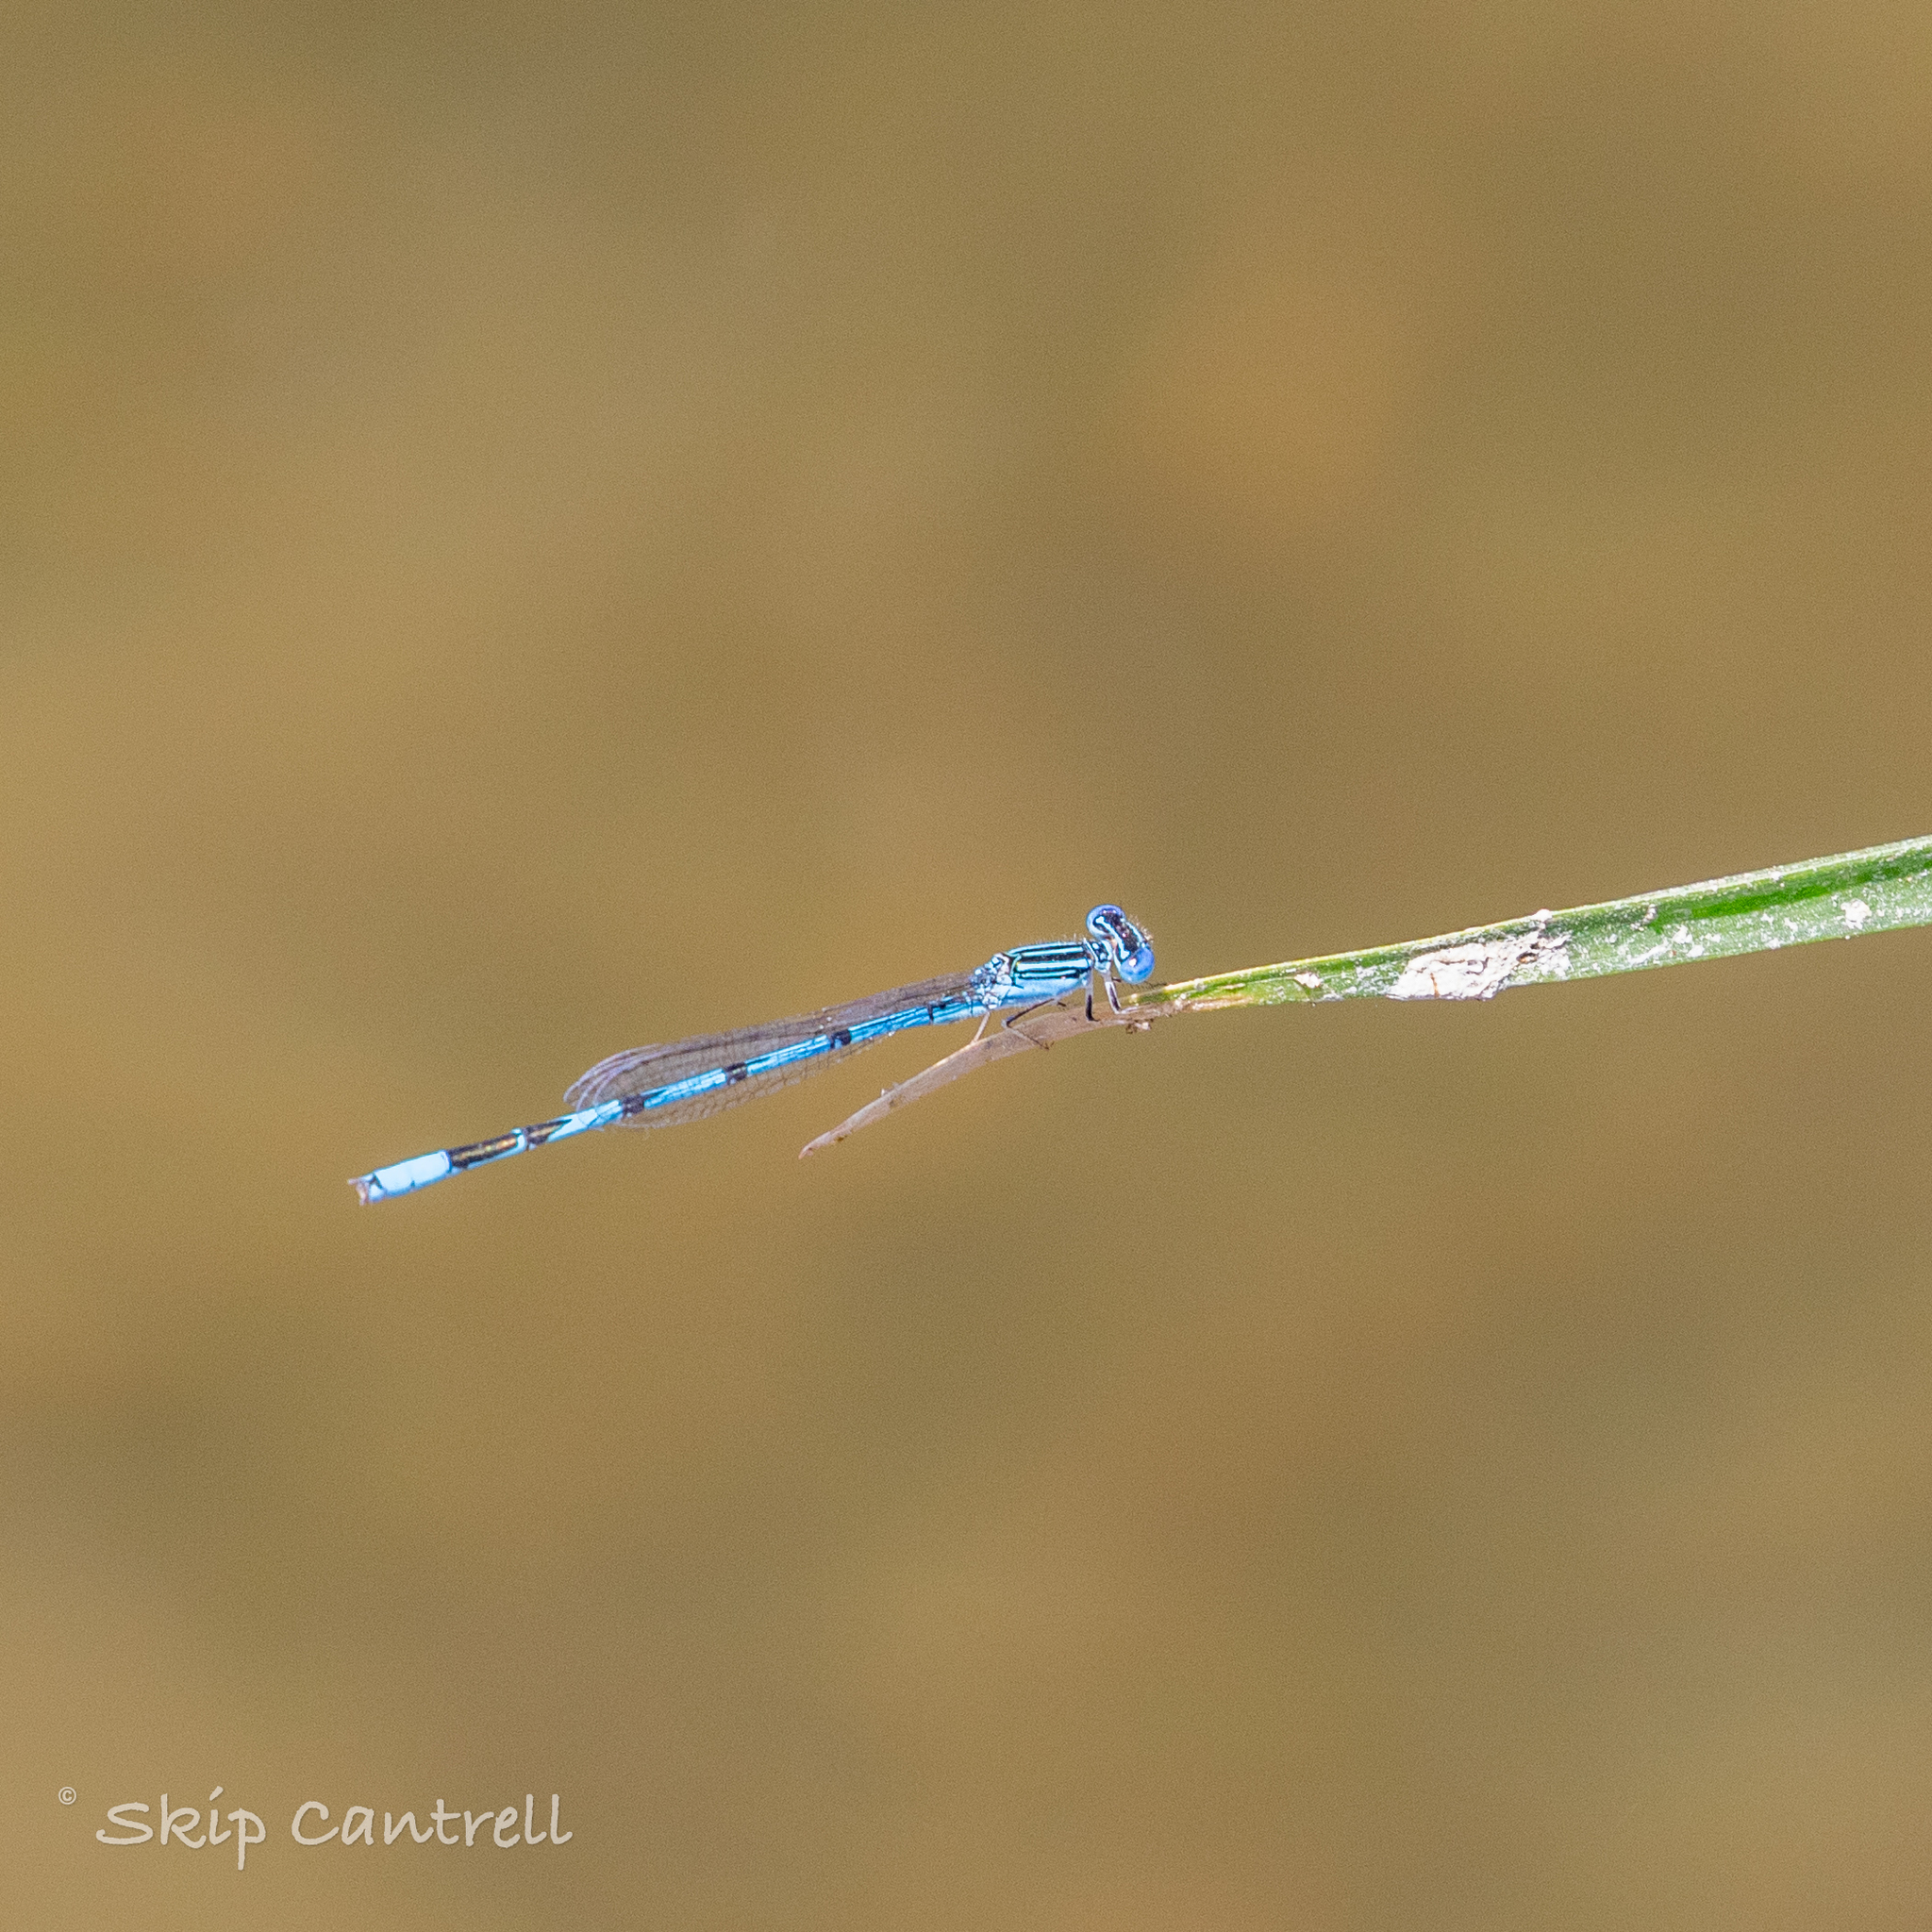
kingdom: Animalia
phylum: Arthropoda
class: Insecta
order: Odonata
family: Coenagrionidae
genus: Enallagma
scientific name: Enallagma basidens
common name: Double-striped bluet
